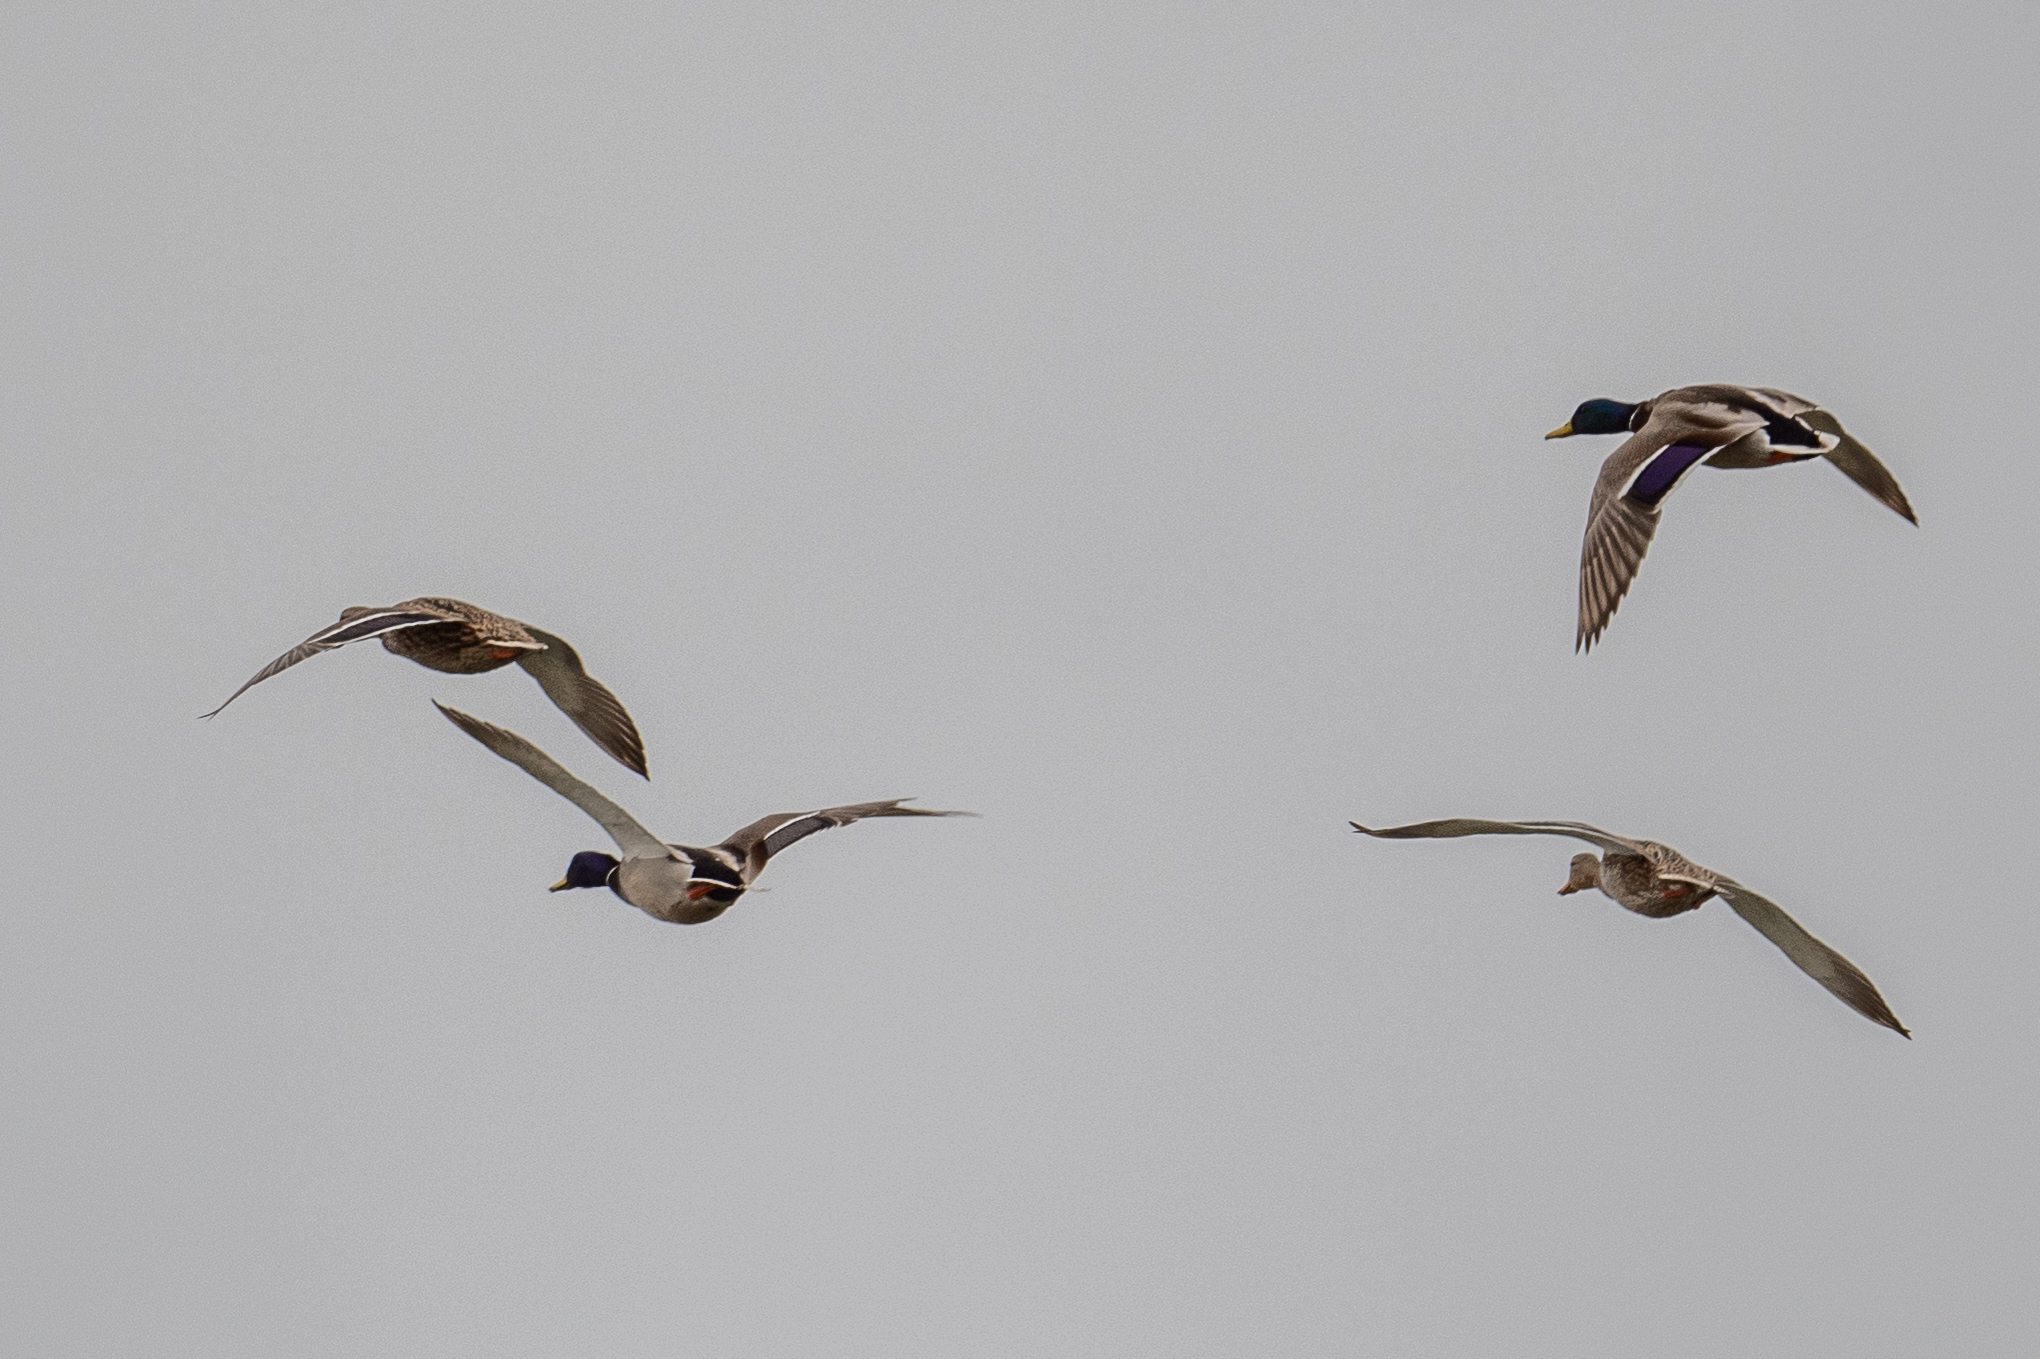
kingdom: Animalia
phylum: Chordata
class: Aves
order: Anseriformes
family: Anatidae
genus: Anas
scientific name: Anas platyrhynchos
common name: Mallard
